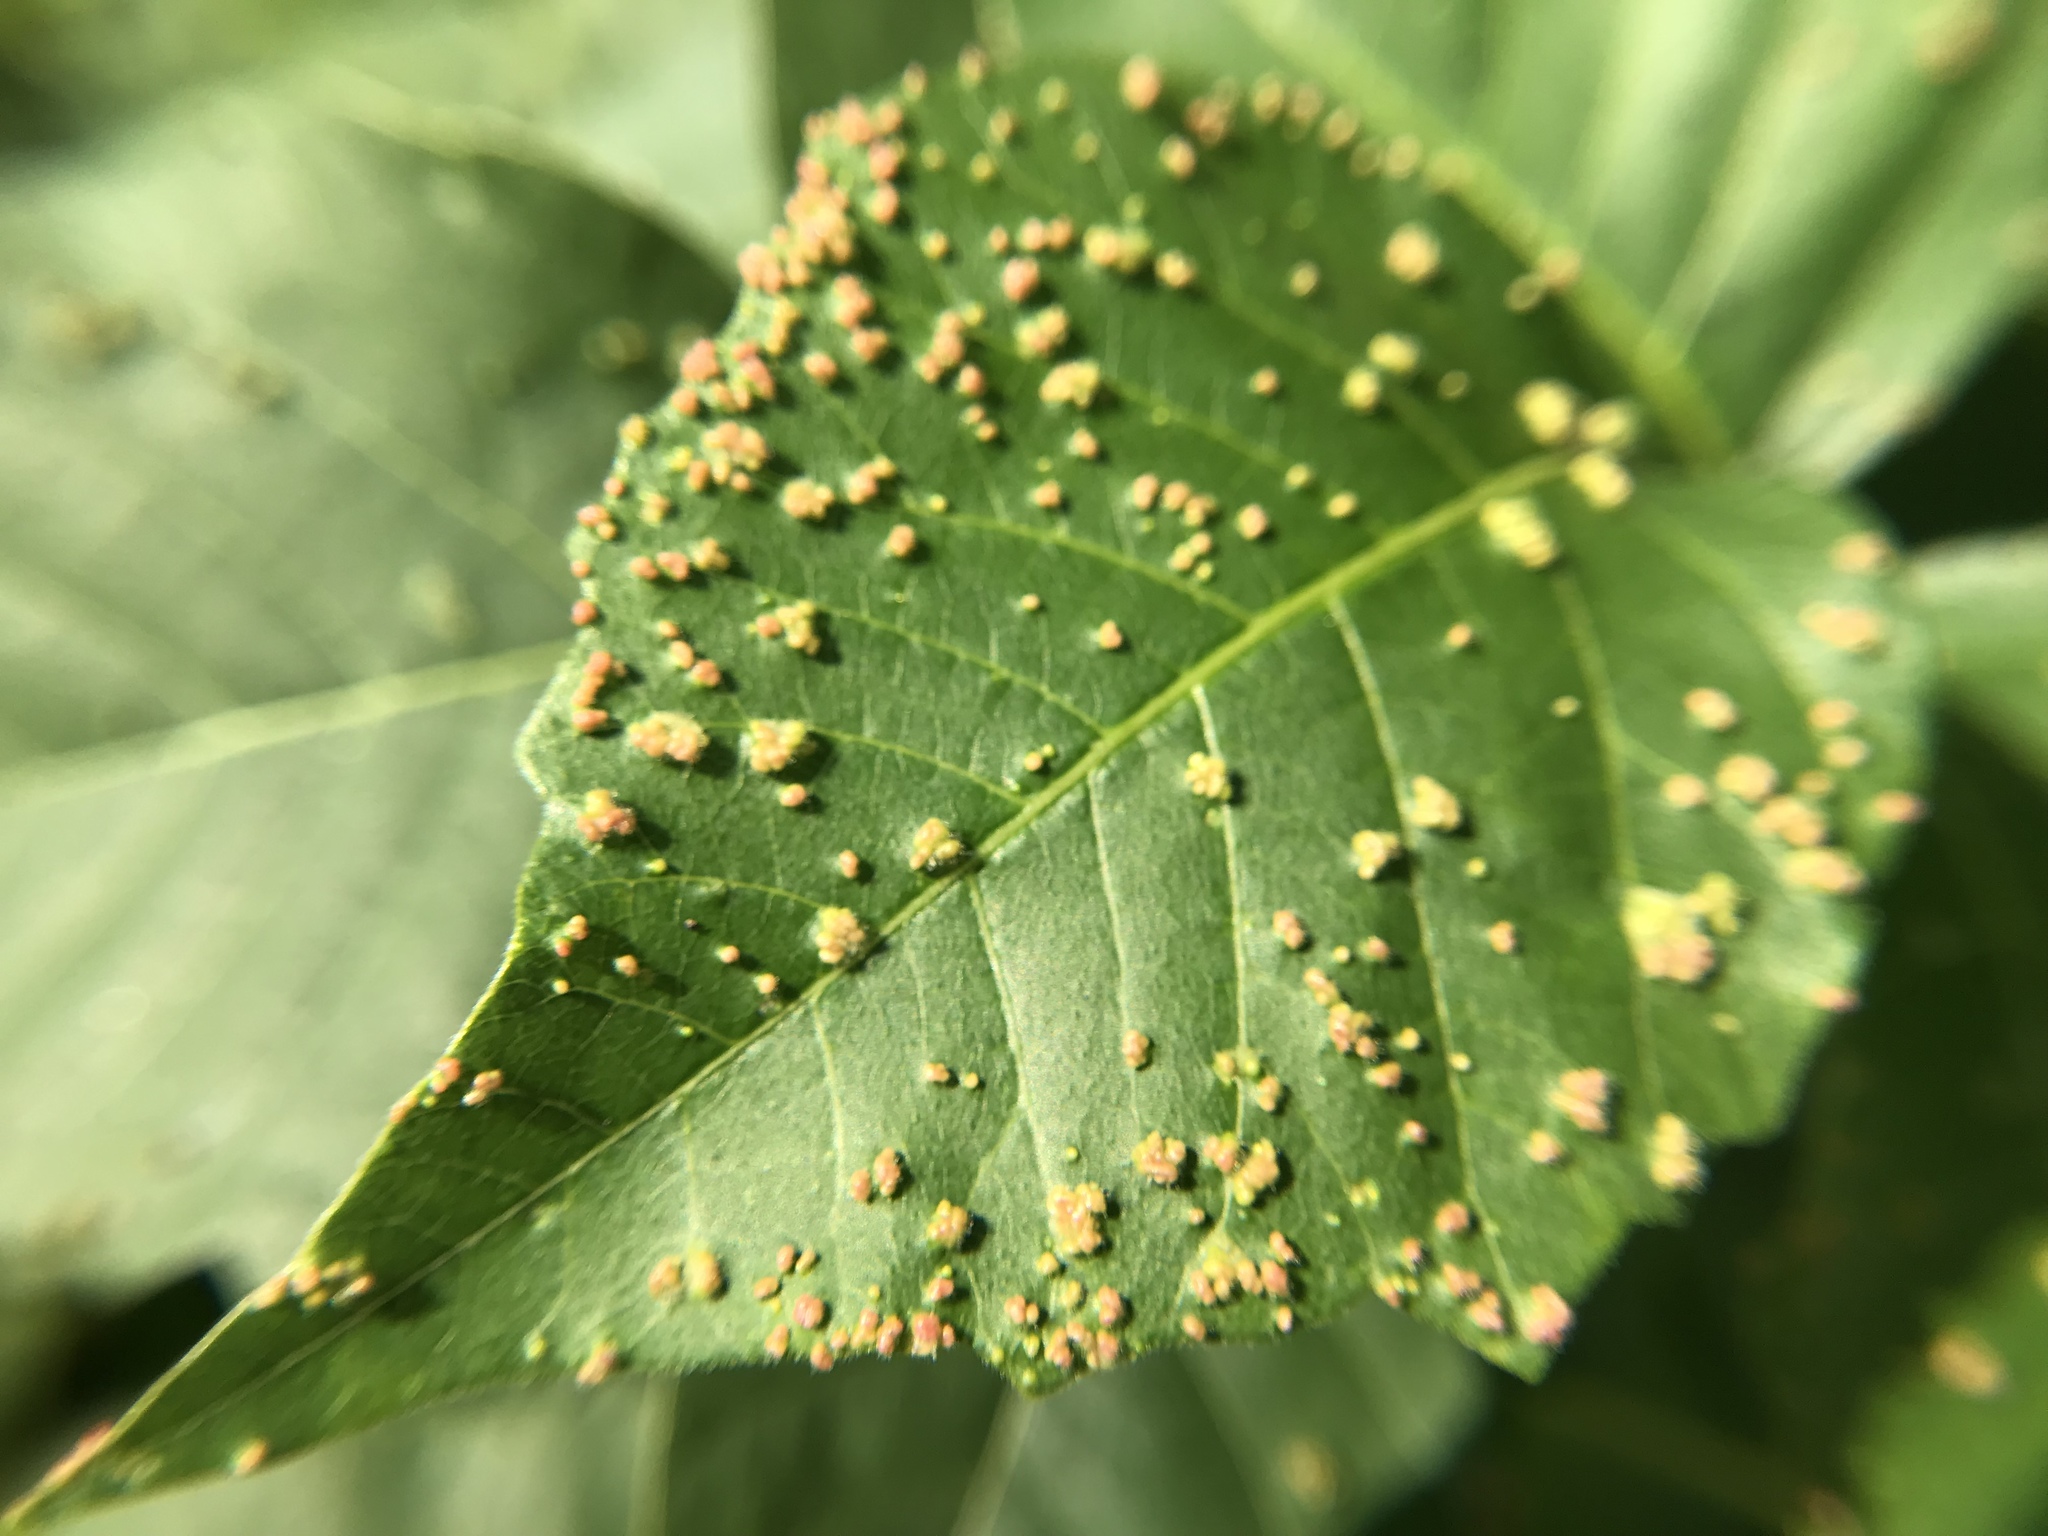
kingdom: Animalia
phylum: Arthropoda
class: Arachnida
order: Trombidiformes
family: Eriophyidae
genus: Aculops
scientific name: Aculops
